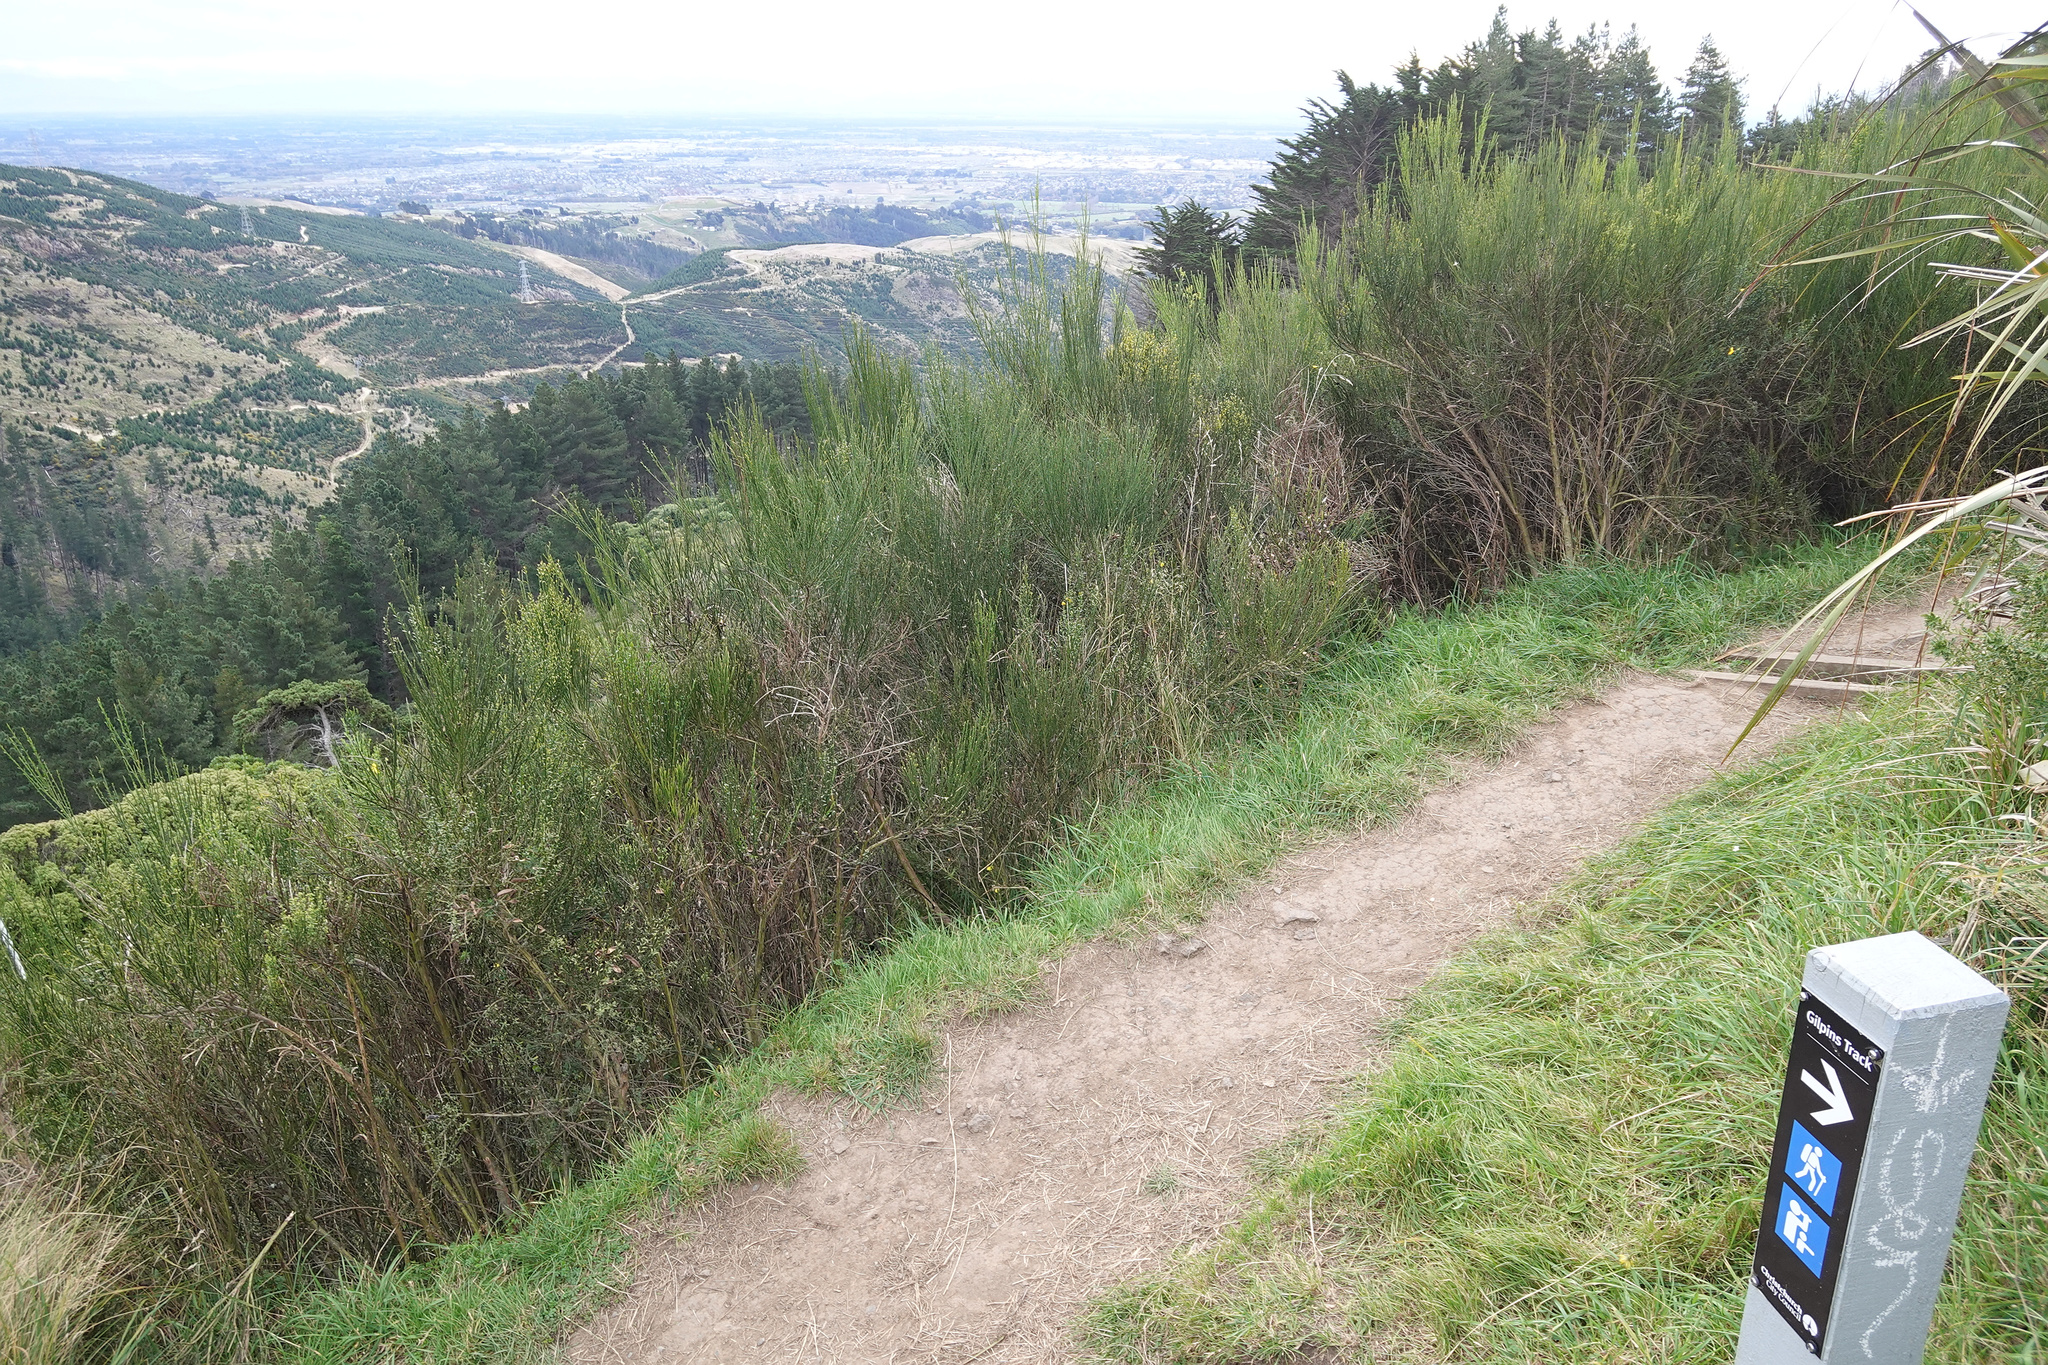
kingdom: Plantae
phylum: Tracheophyta
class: Magnoliopsida
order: Fabales
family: Fabaceae
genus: Cytisus
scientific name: Cytisus scoparius
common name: Scotch broom
